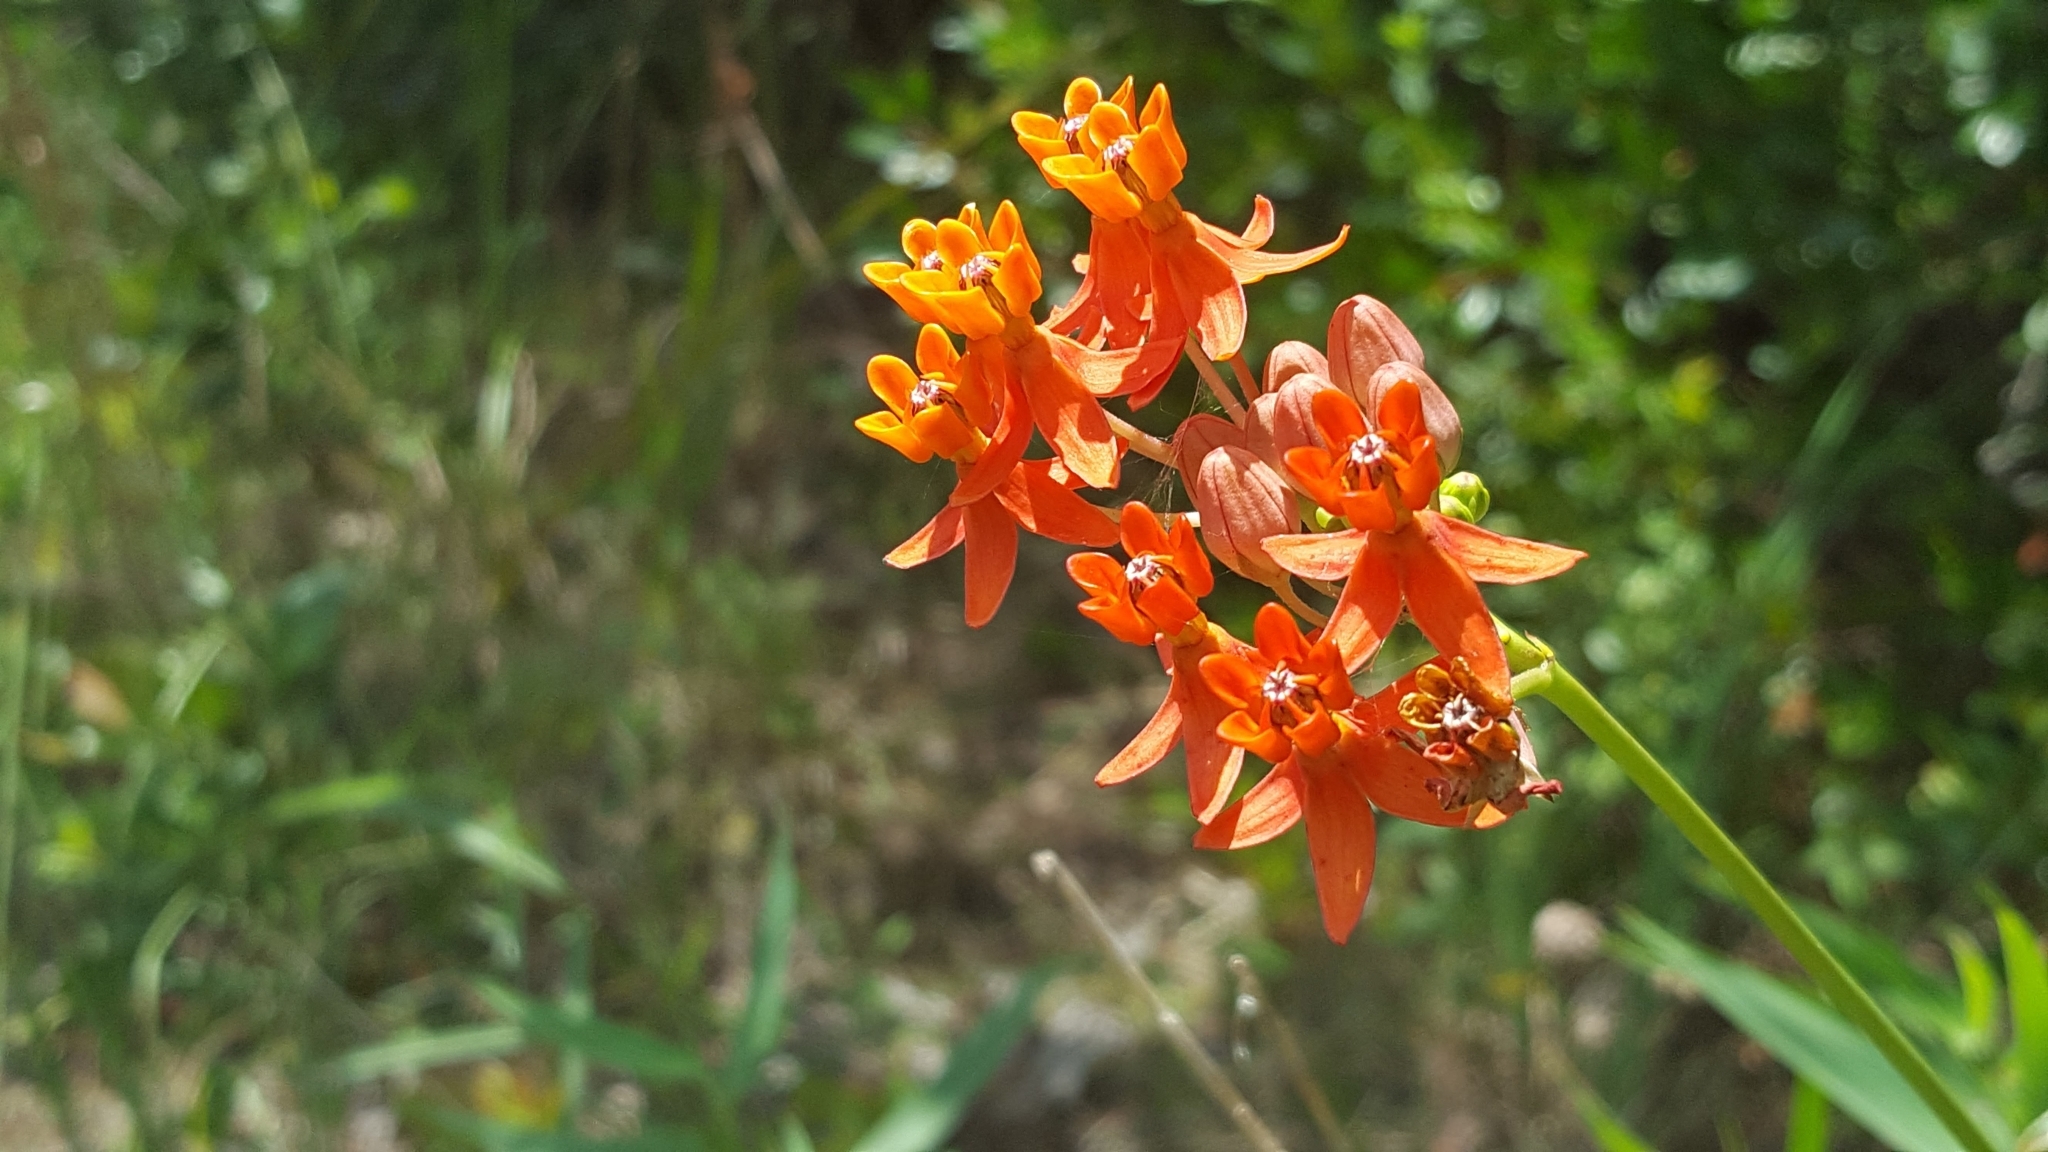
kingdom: Plantae
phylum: Tracheophyta
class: Magnoliopsida
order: Gentianales
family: Apocynaceae
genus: Asclepias
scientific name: Asclepias lanceolata
